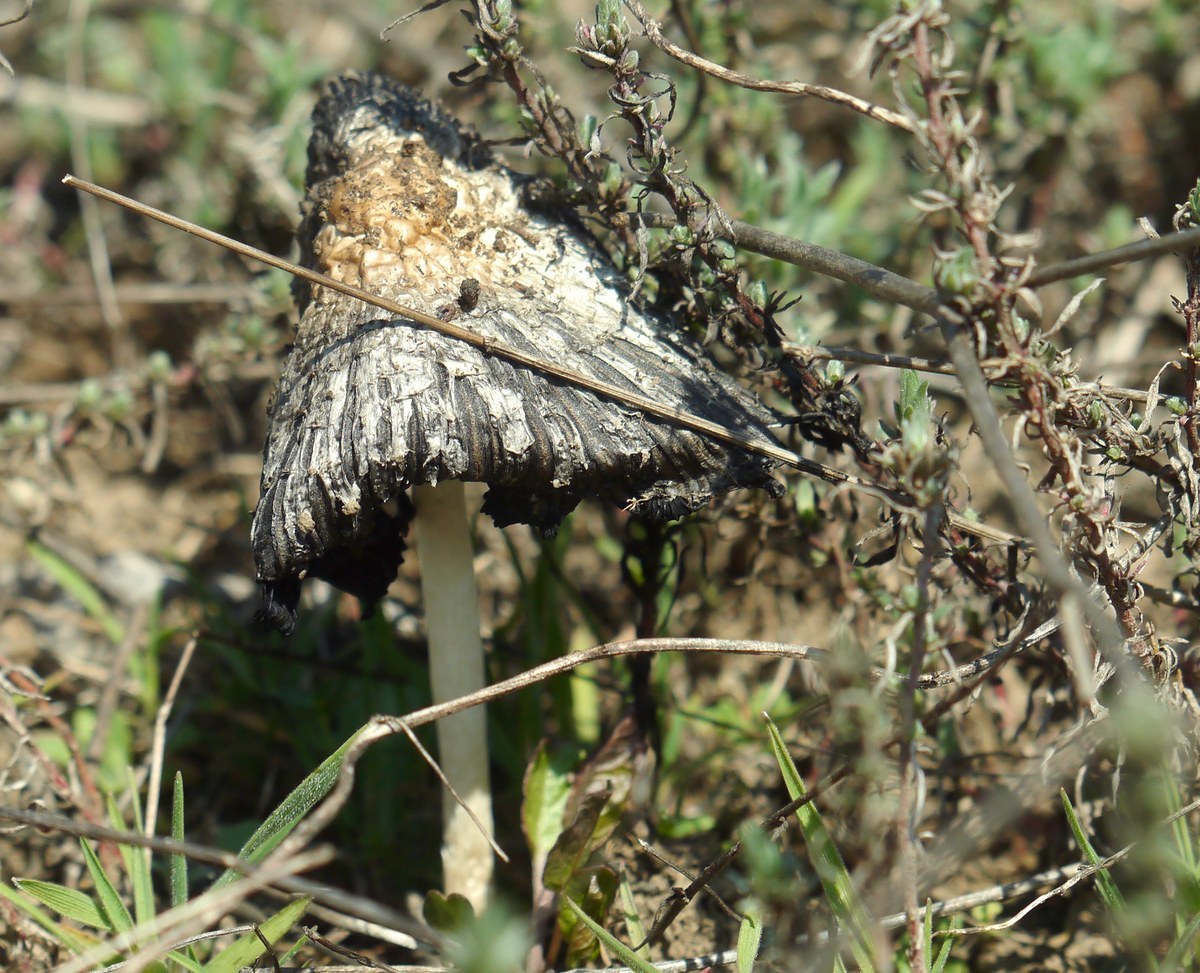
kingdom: Fungi
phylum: Basidiomycota
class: Agaricomycetes
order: Agaricales
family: Agaricaceae
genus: Coprinus
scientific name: Coprinus comatus
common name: Lawyer's wig
